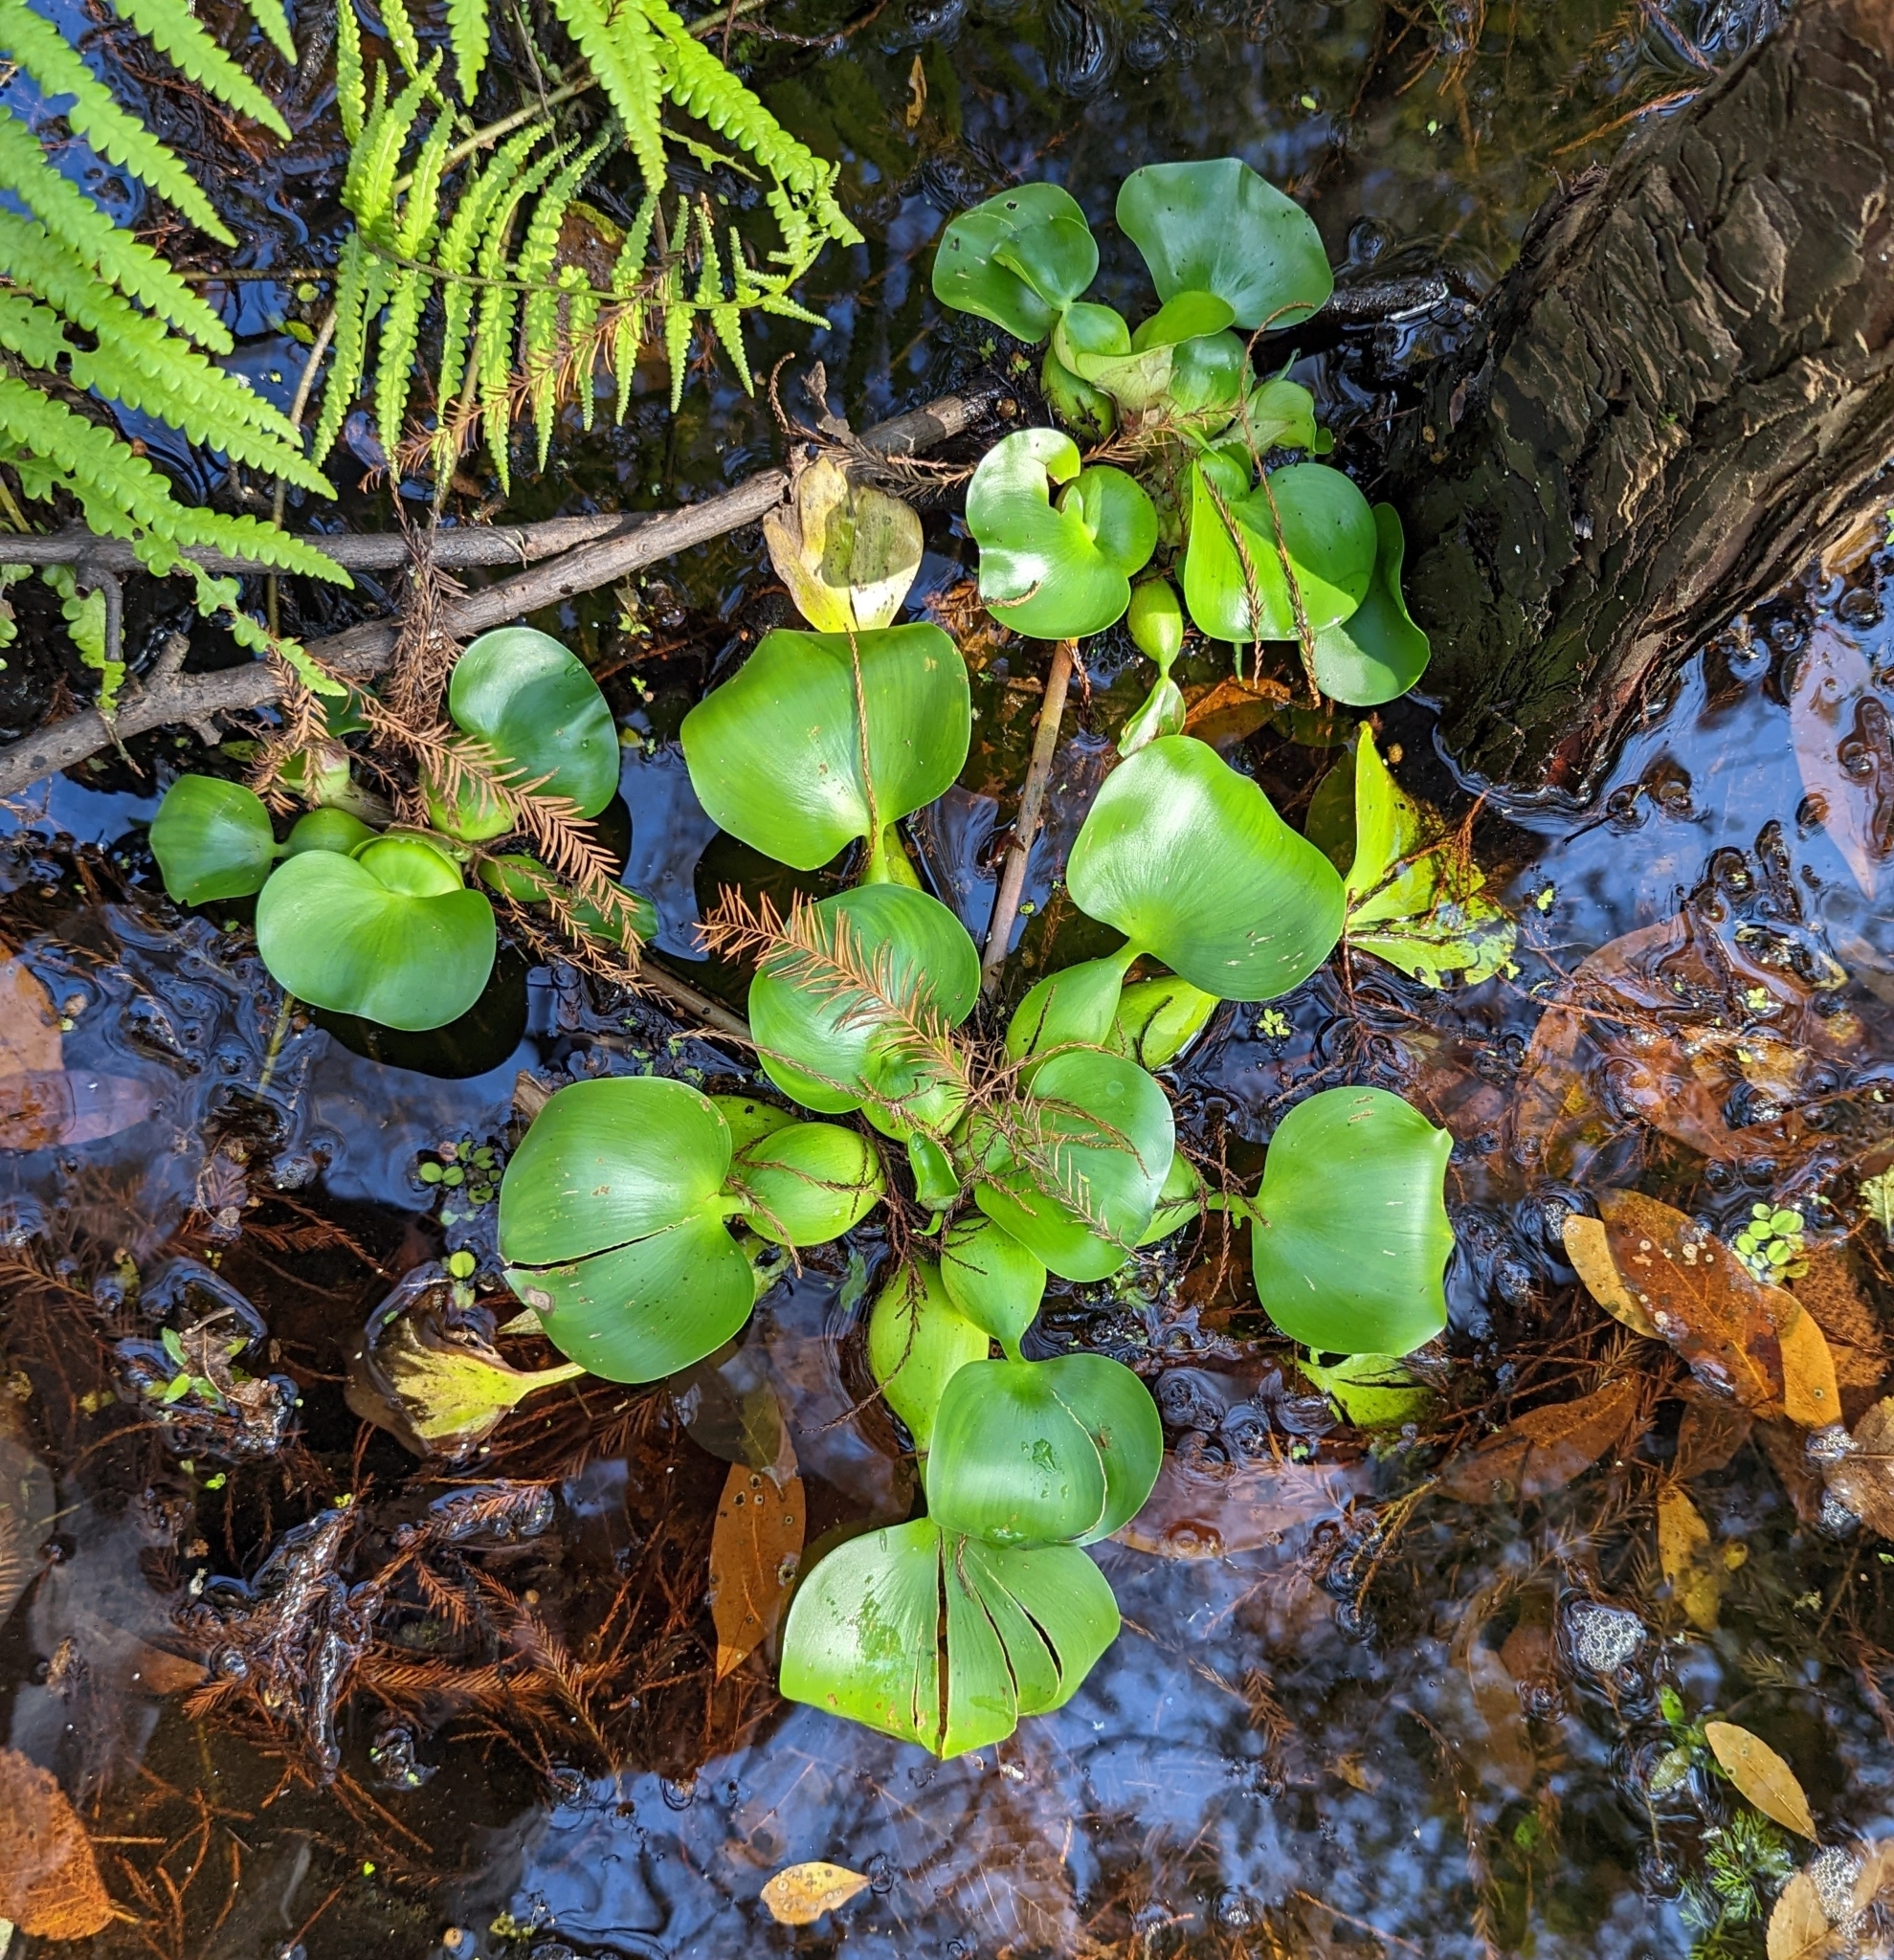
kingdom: Plantae
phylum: Tracheophyta
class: Liliopsida
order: Commelinales
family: Pontederiaceae
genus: Pontederia
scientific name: Pontederia crassipes
